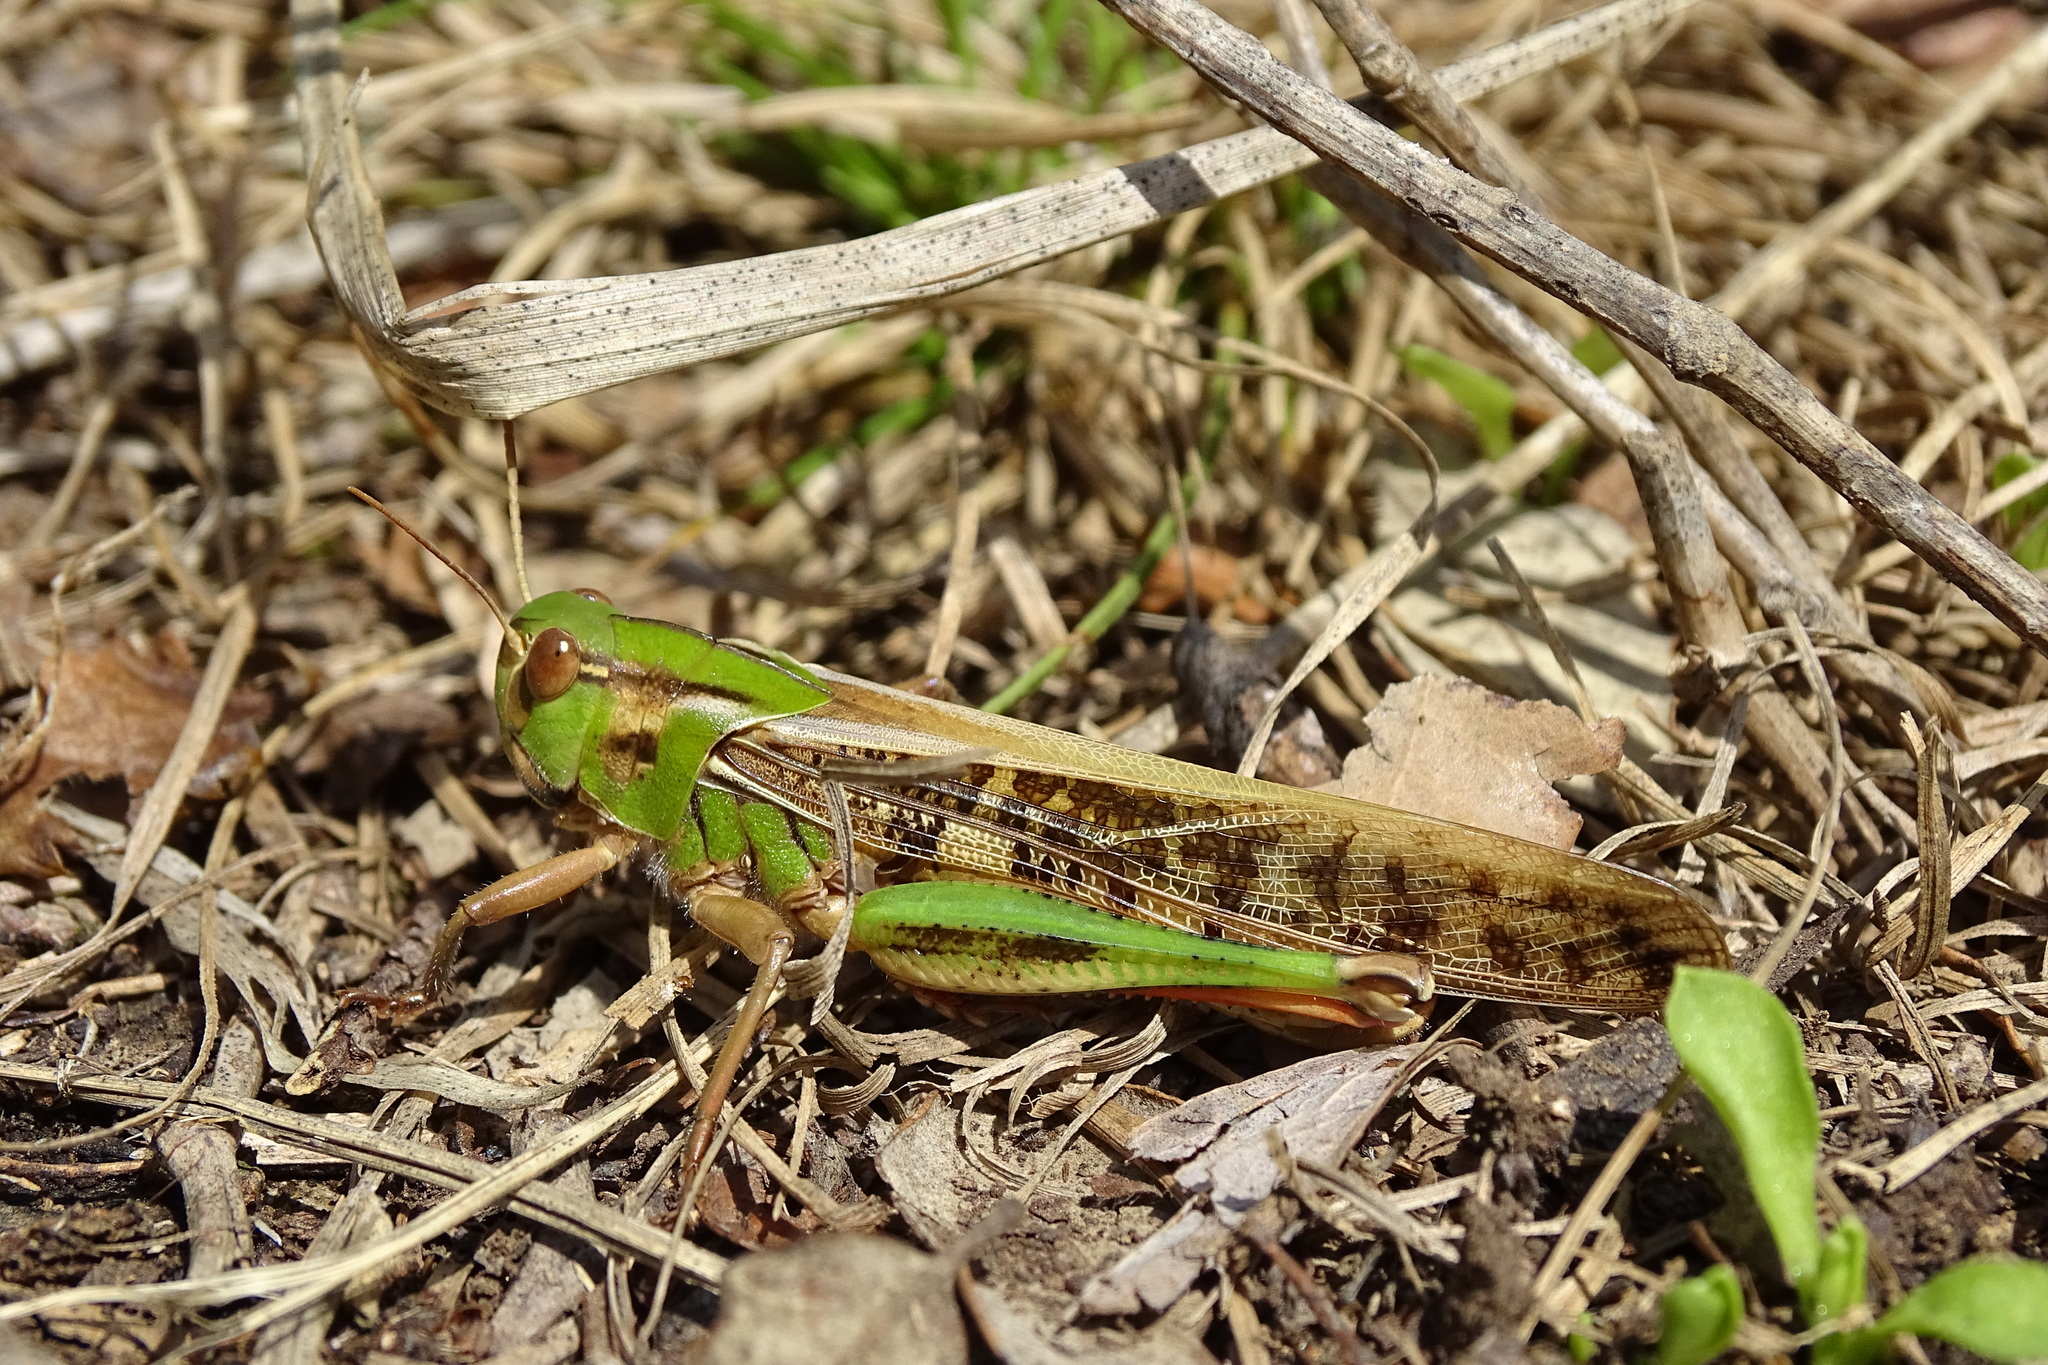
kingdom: Animalia
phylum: Arthropoda
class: Insecta
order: Orthoptera
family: Acrididae
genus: Locusta
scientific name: Locusta migratoria
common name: Migratory locust
